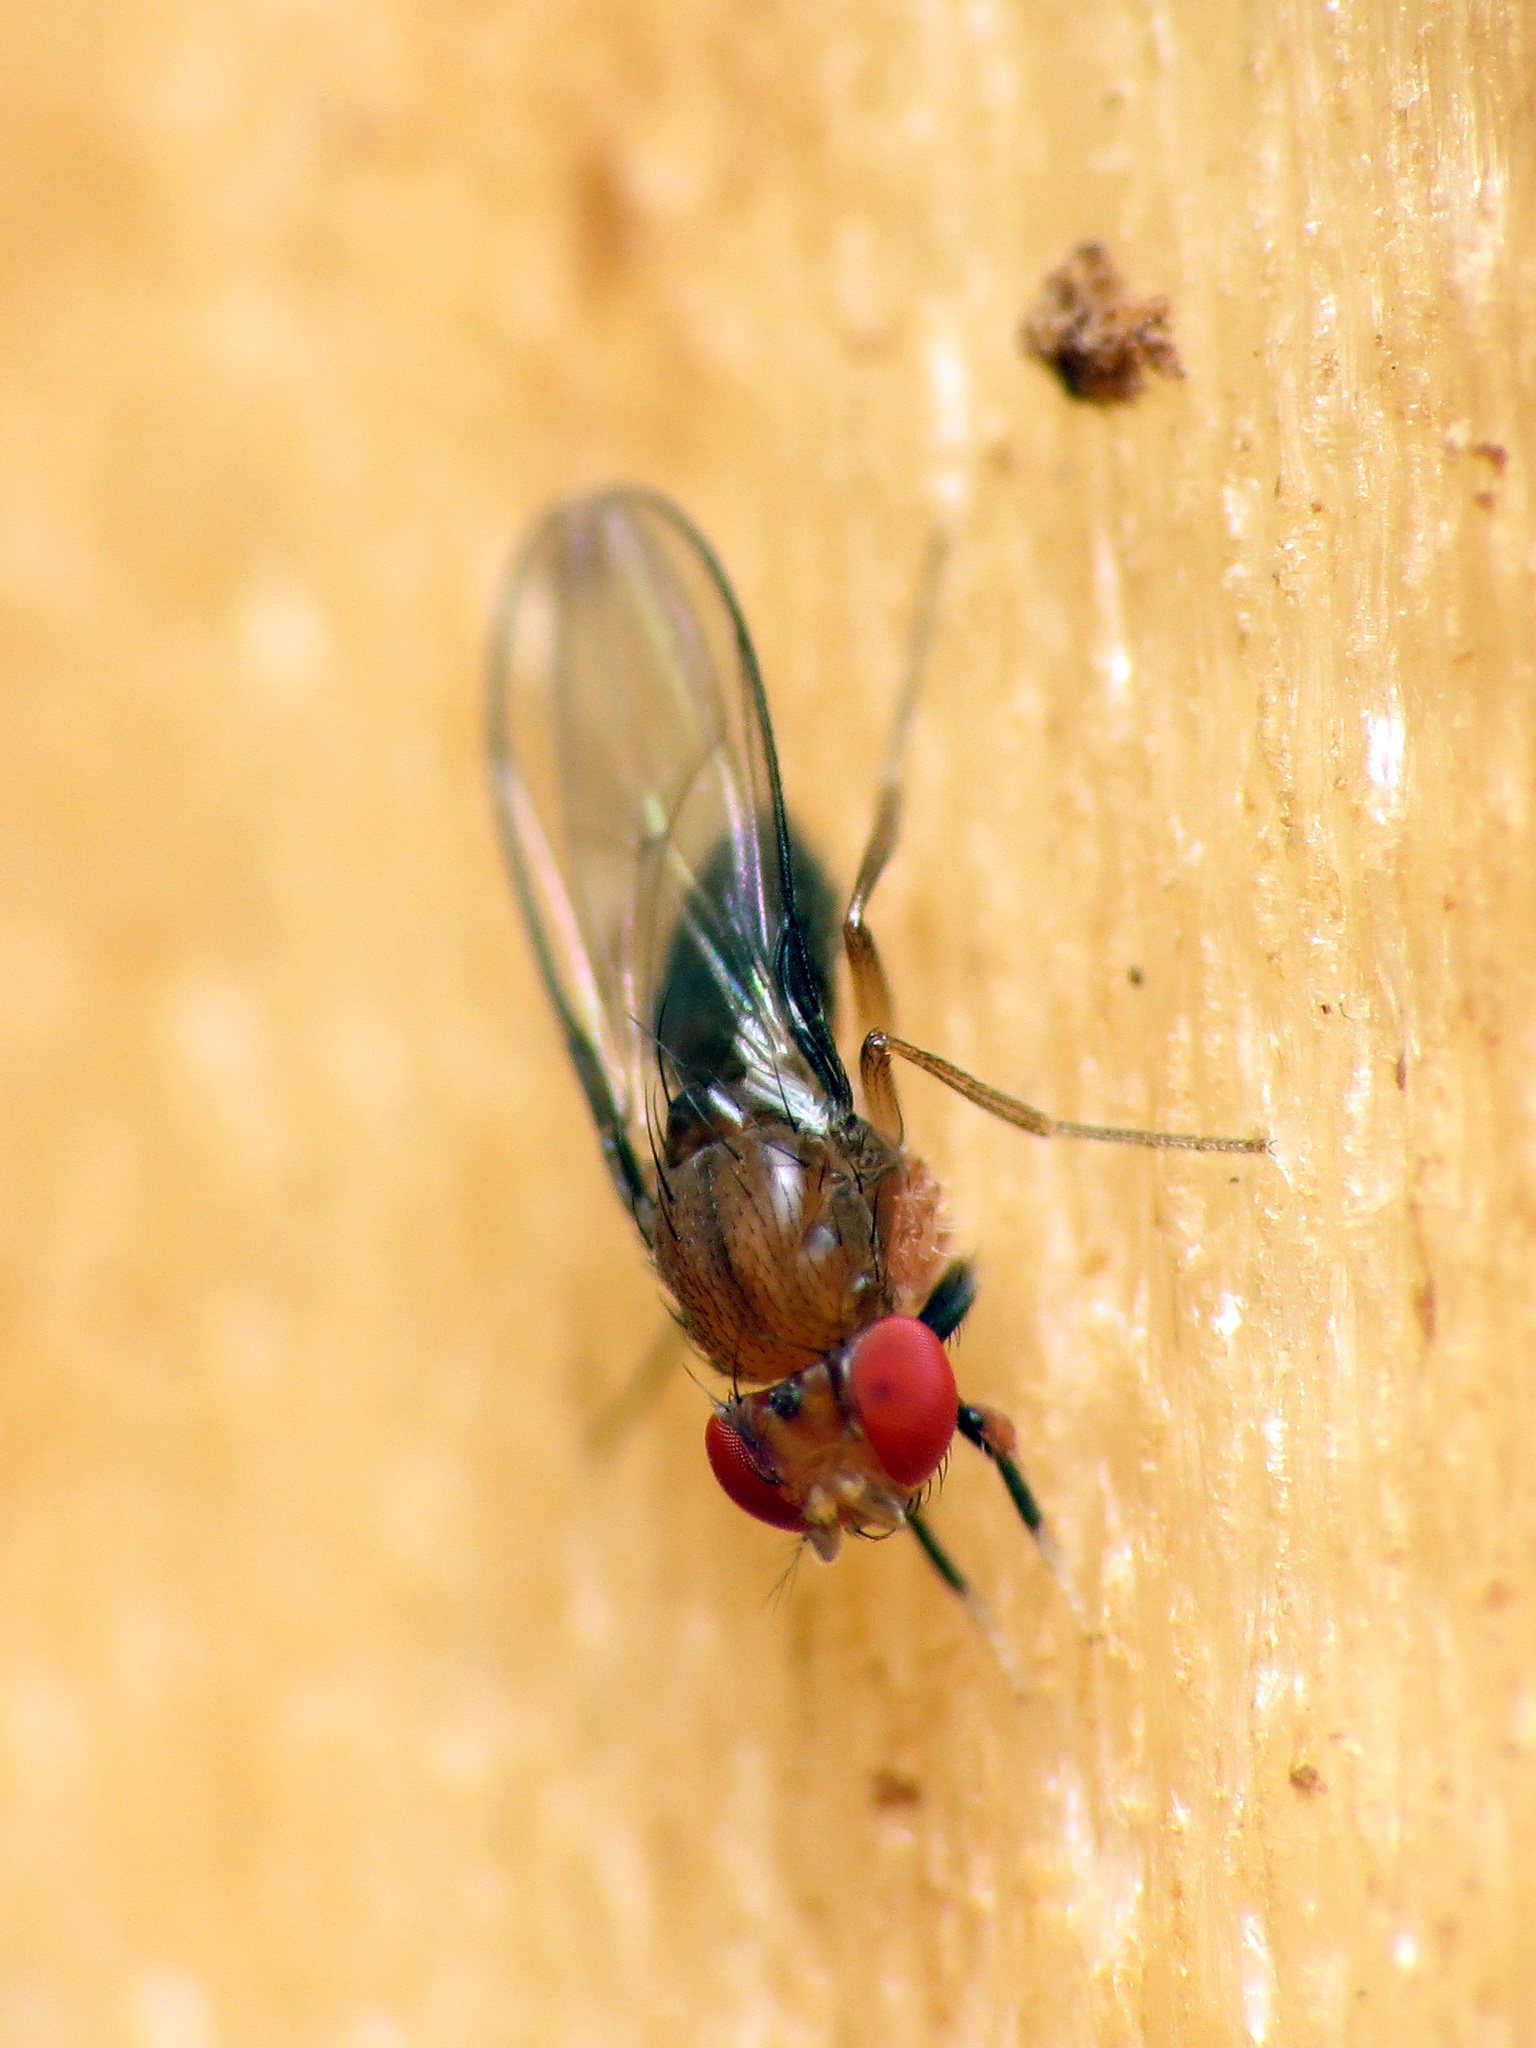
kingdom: Animalia
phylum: Arthropoda
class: Insecta
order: Diptera
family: Drosophilidae
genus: Chymomyza
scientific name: Chymomyza procnemoides
